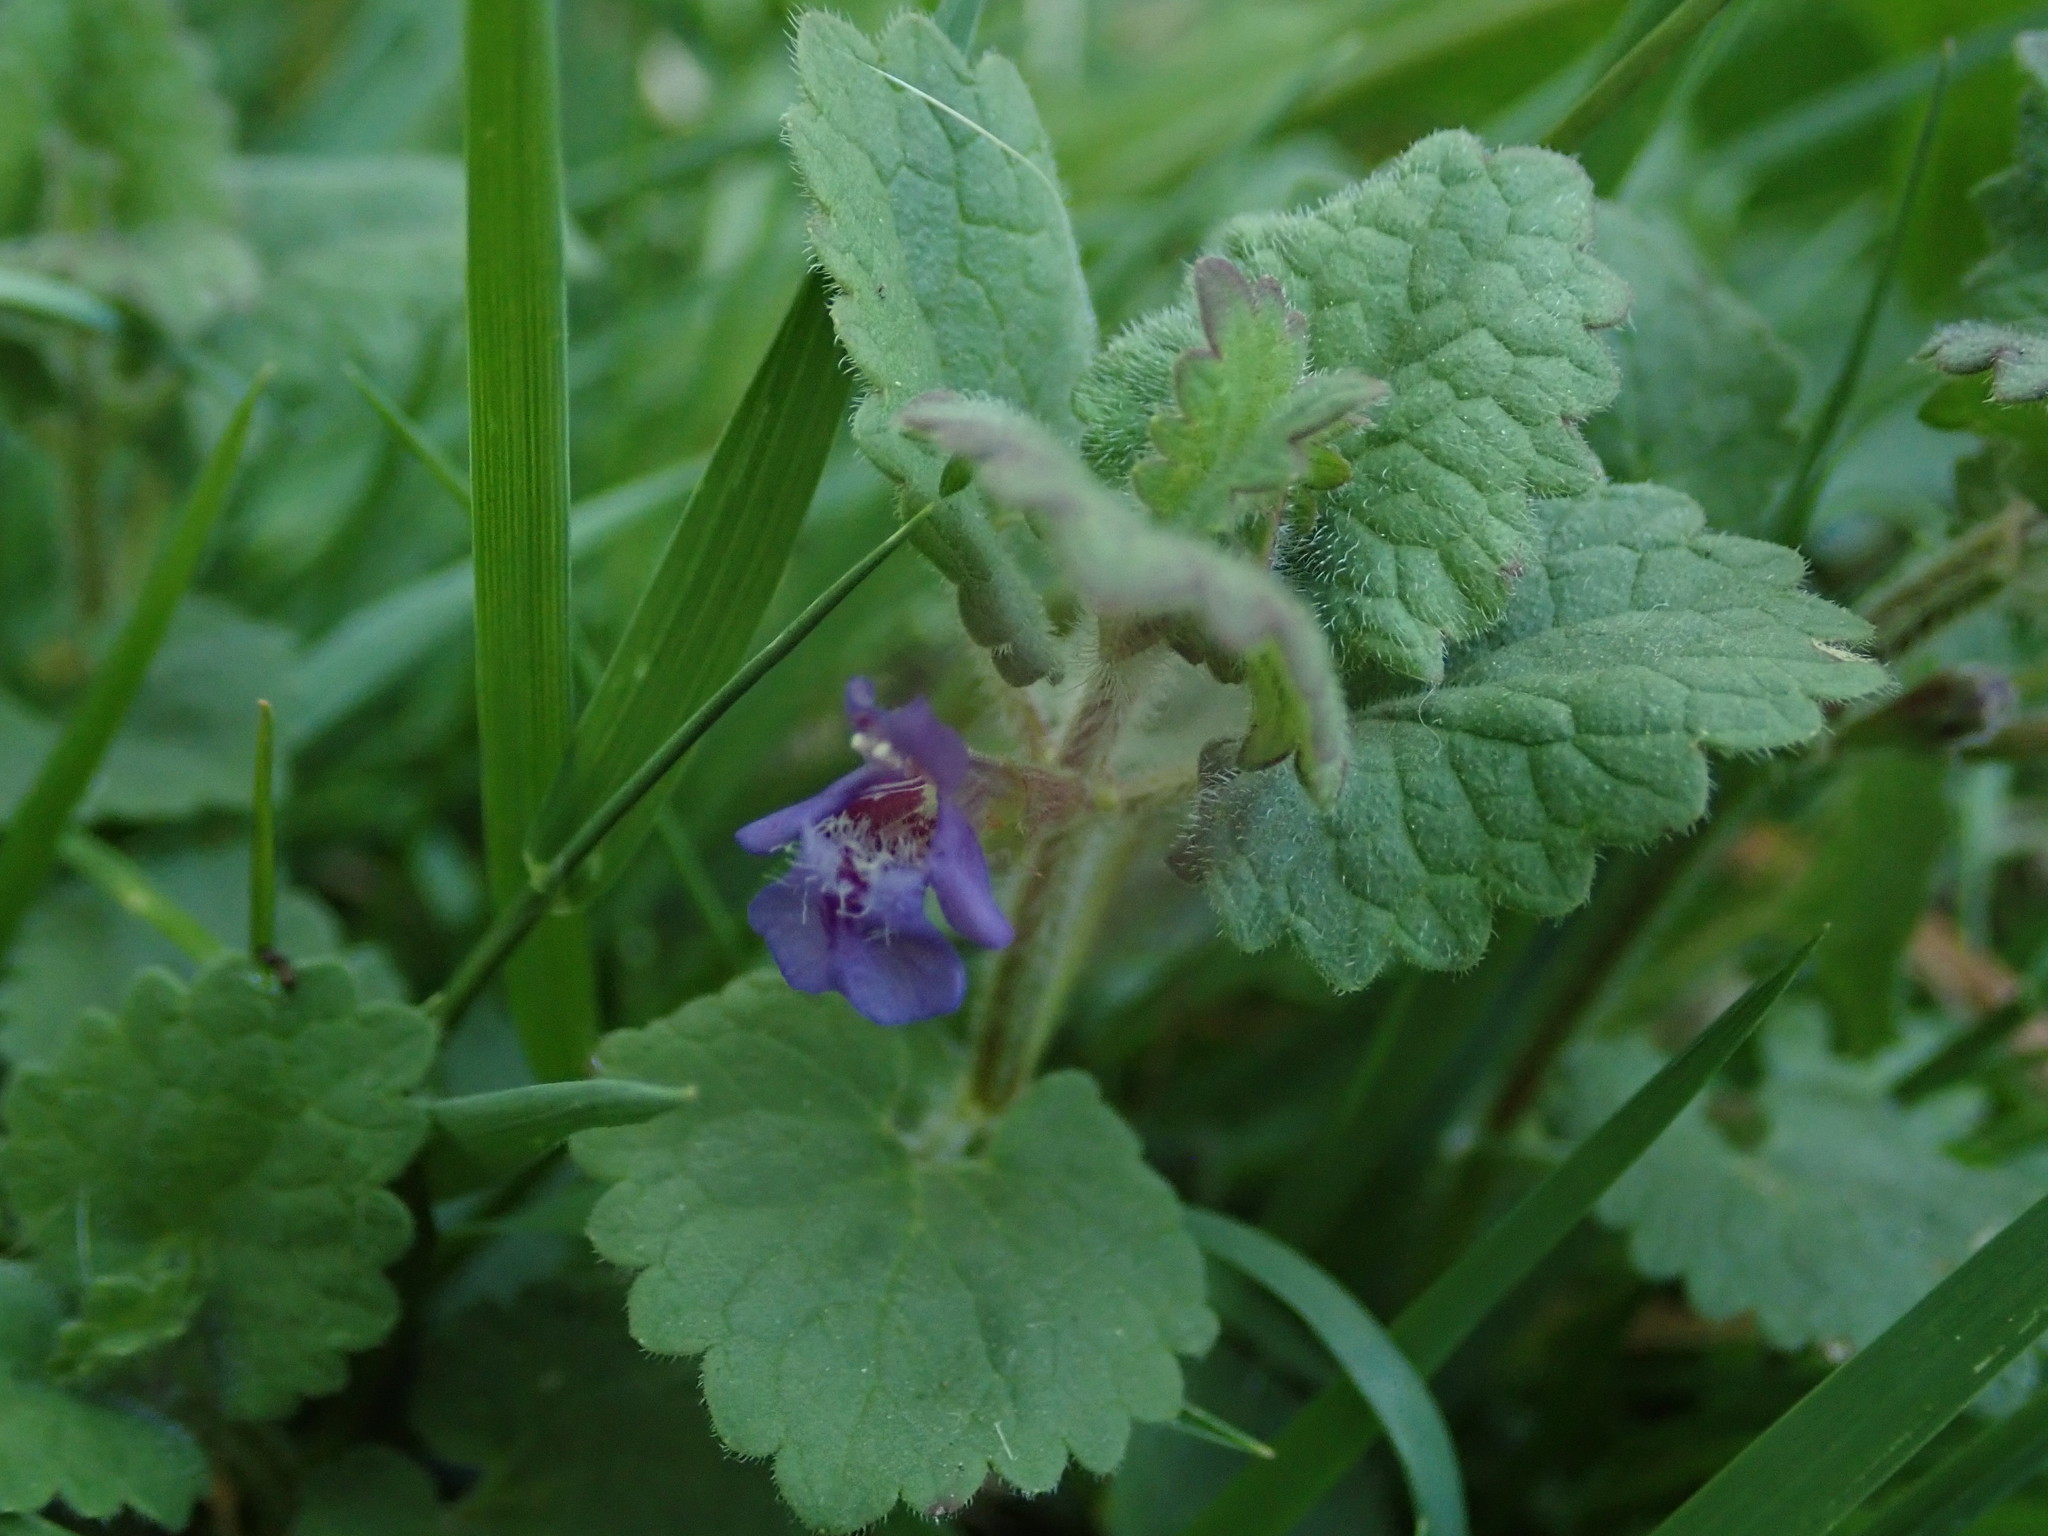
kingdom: Plantae
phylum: Tracheophyta
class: Magnoliopsida
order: Lamiales
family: Lamiaceae
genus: Glechoma
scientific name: Glechoma hederacea
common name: Ground ivy
